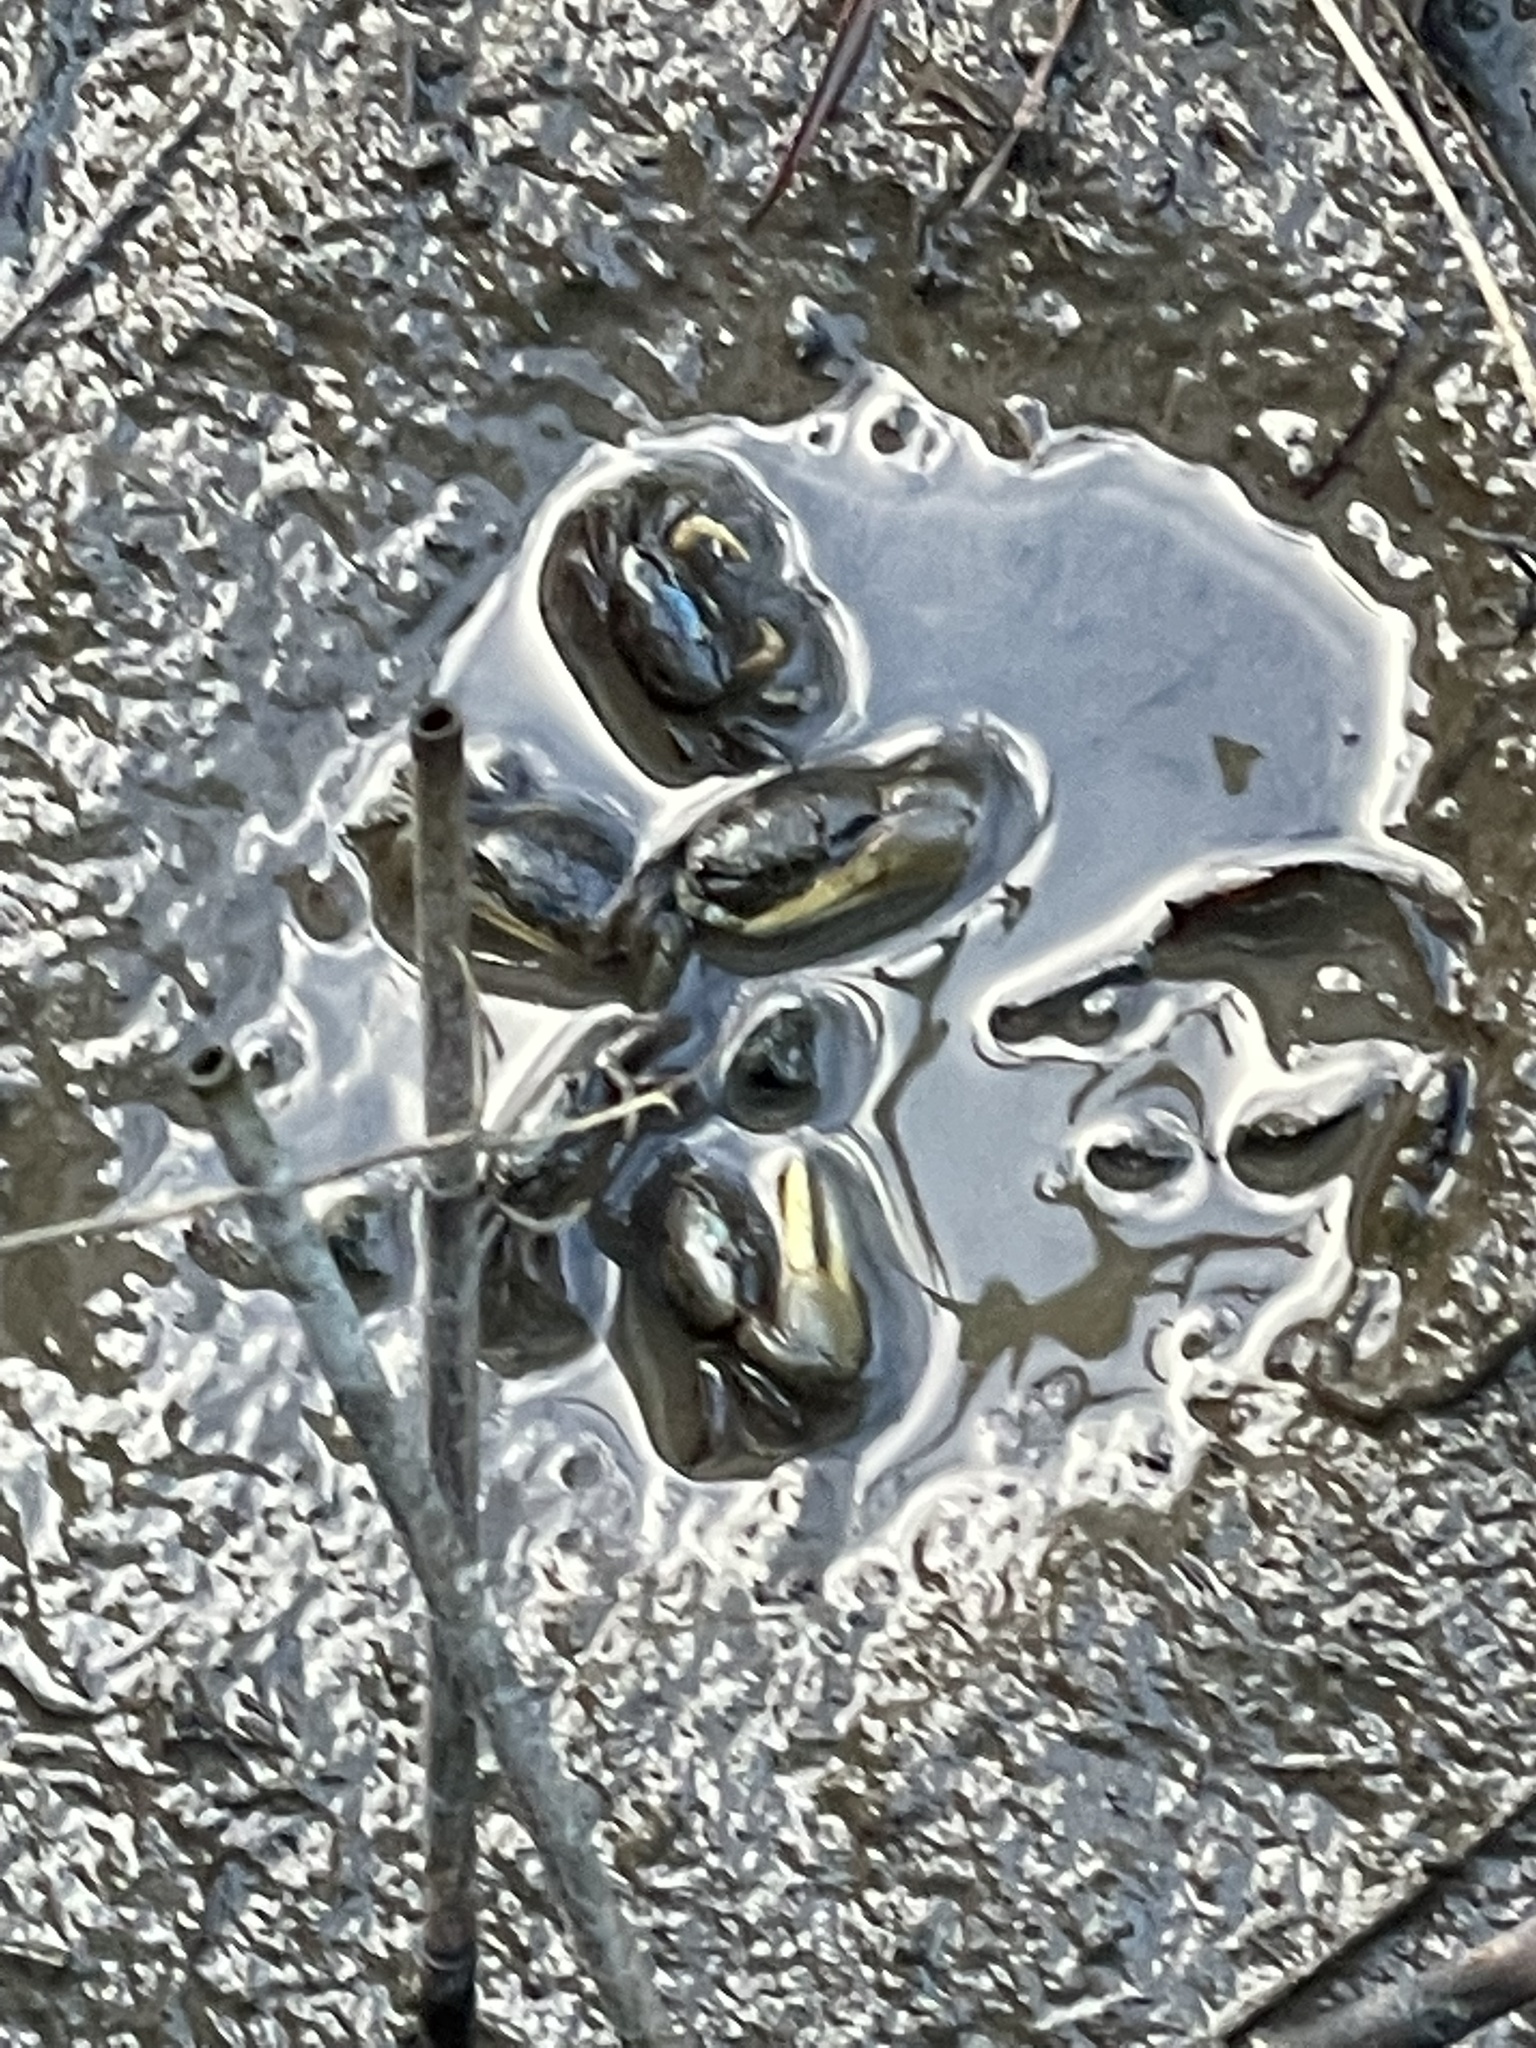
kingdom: Animalia
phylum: Arthropoda
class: Malacostraca
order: Decapoda
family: Ocypodidae
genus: Minuca
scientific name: Minuca pugnax
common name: Mud fiddler crab
